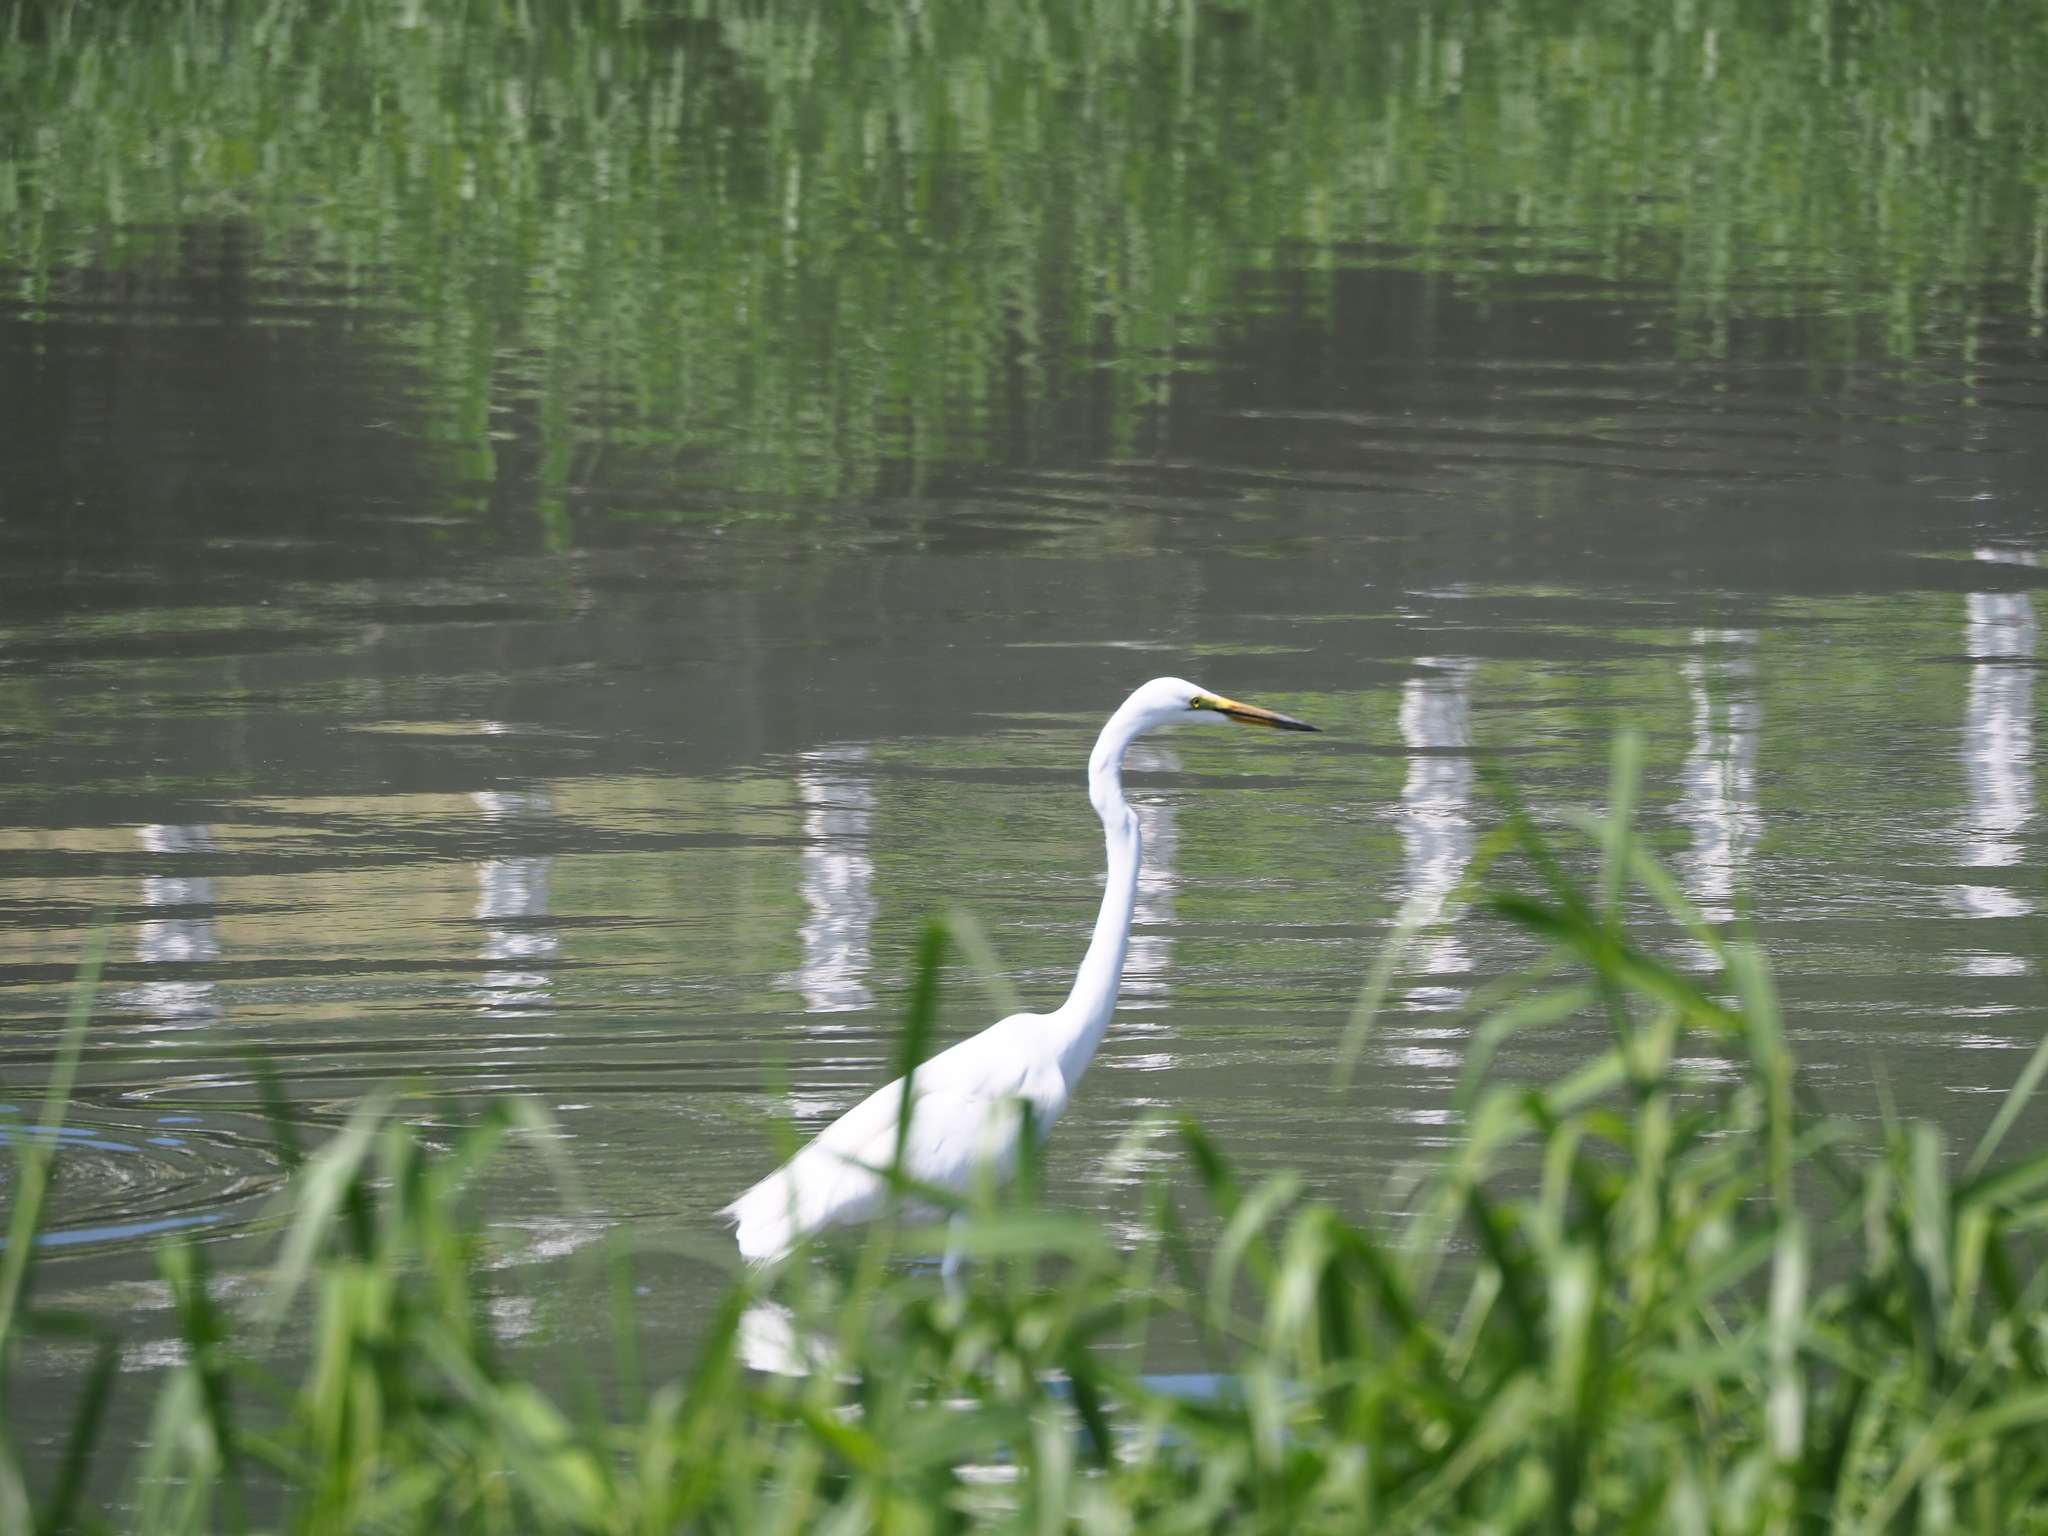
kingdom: Animalia
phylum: Chordata
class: Aves
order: Pelecaniformes
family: Ardeidae
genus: Ardea
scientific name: Ardea alba
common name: Great egret
